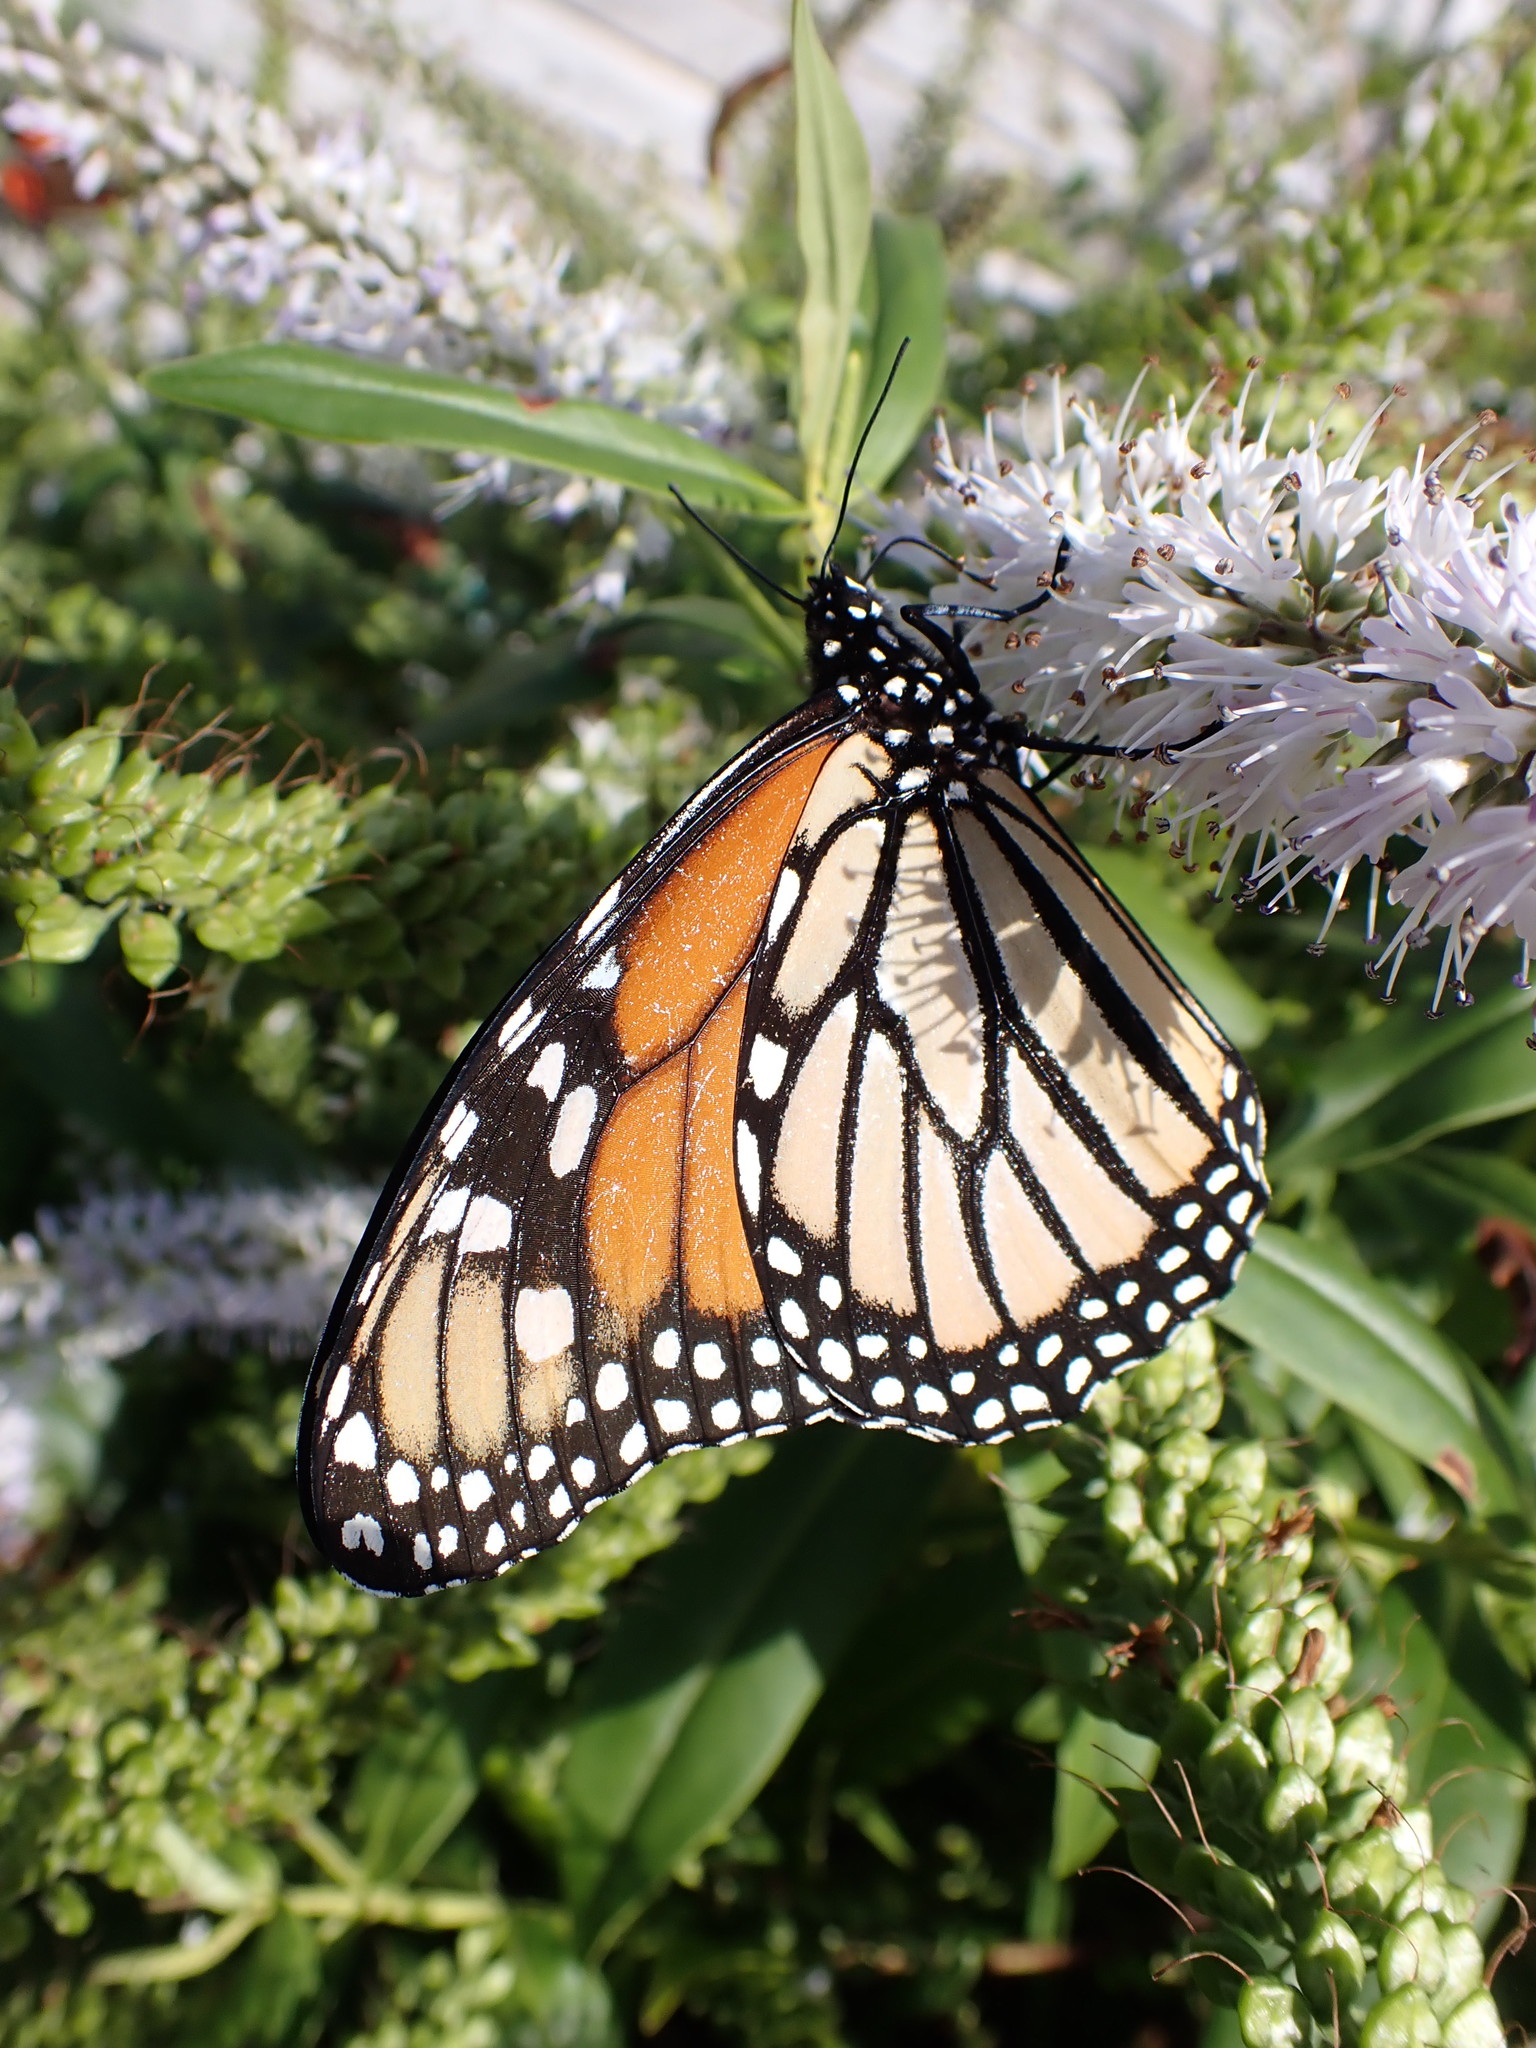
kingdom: Animalia
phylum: Arthropoda
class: Insecta
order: Lepidoptera
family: Nymphalidae
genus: Danaus
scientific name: Danaus plexippus
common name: Monarch
